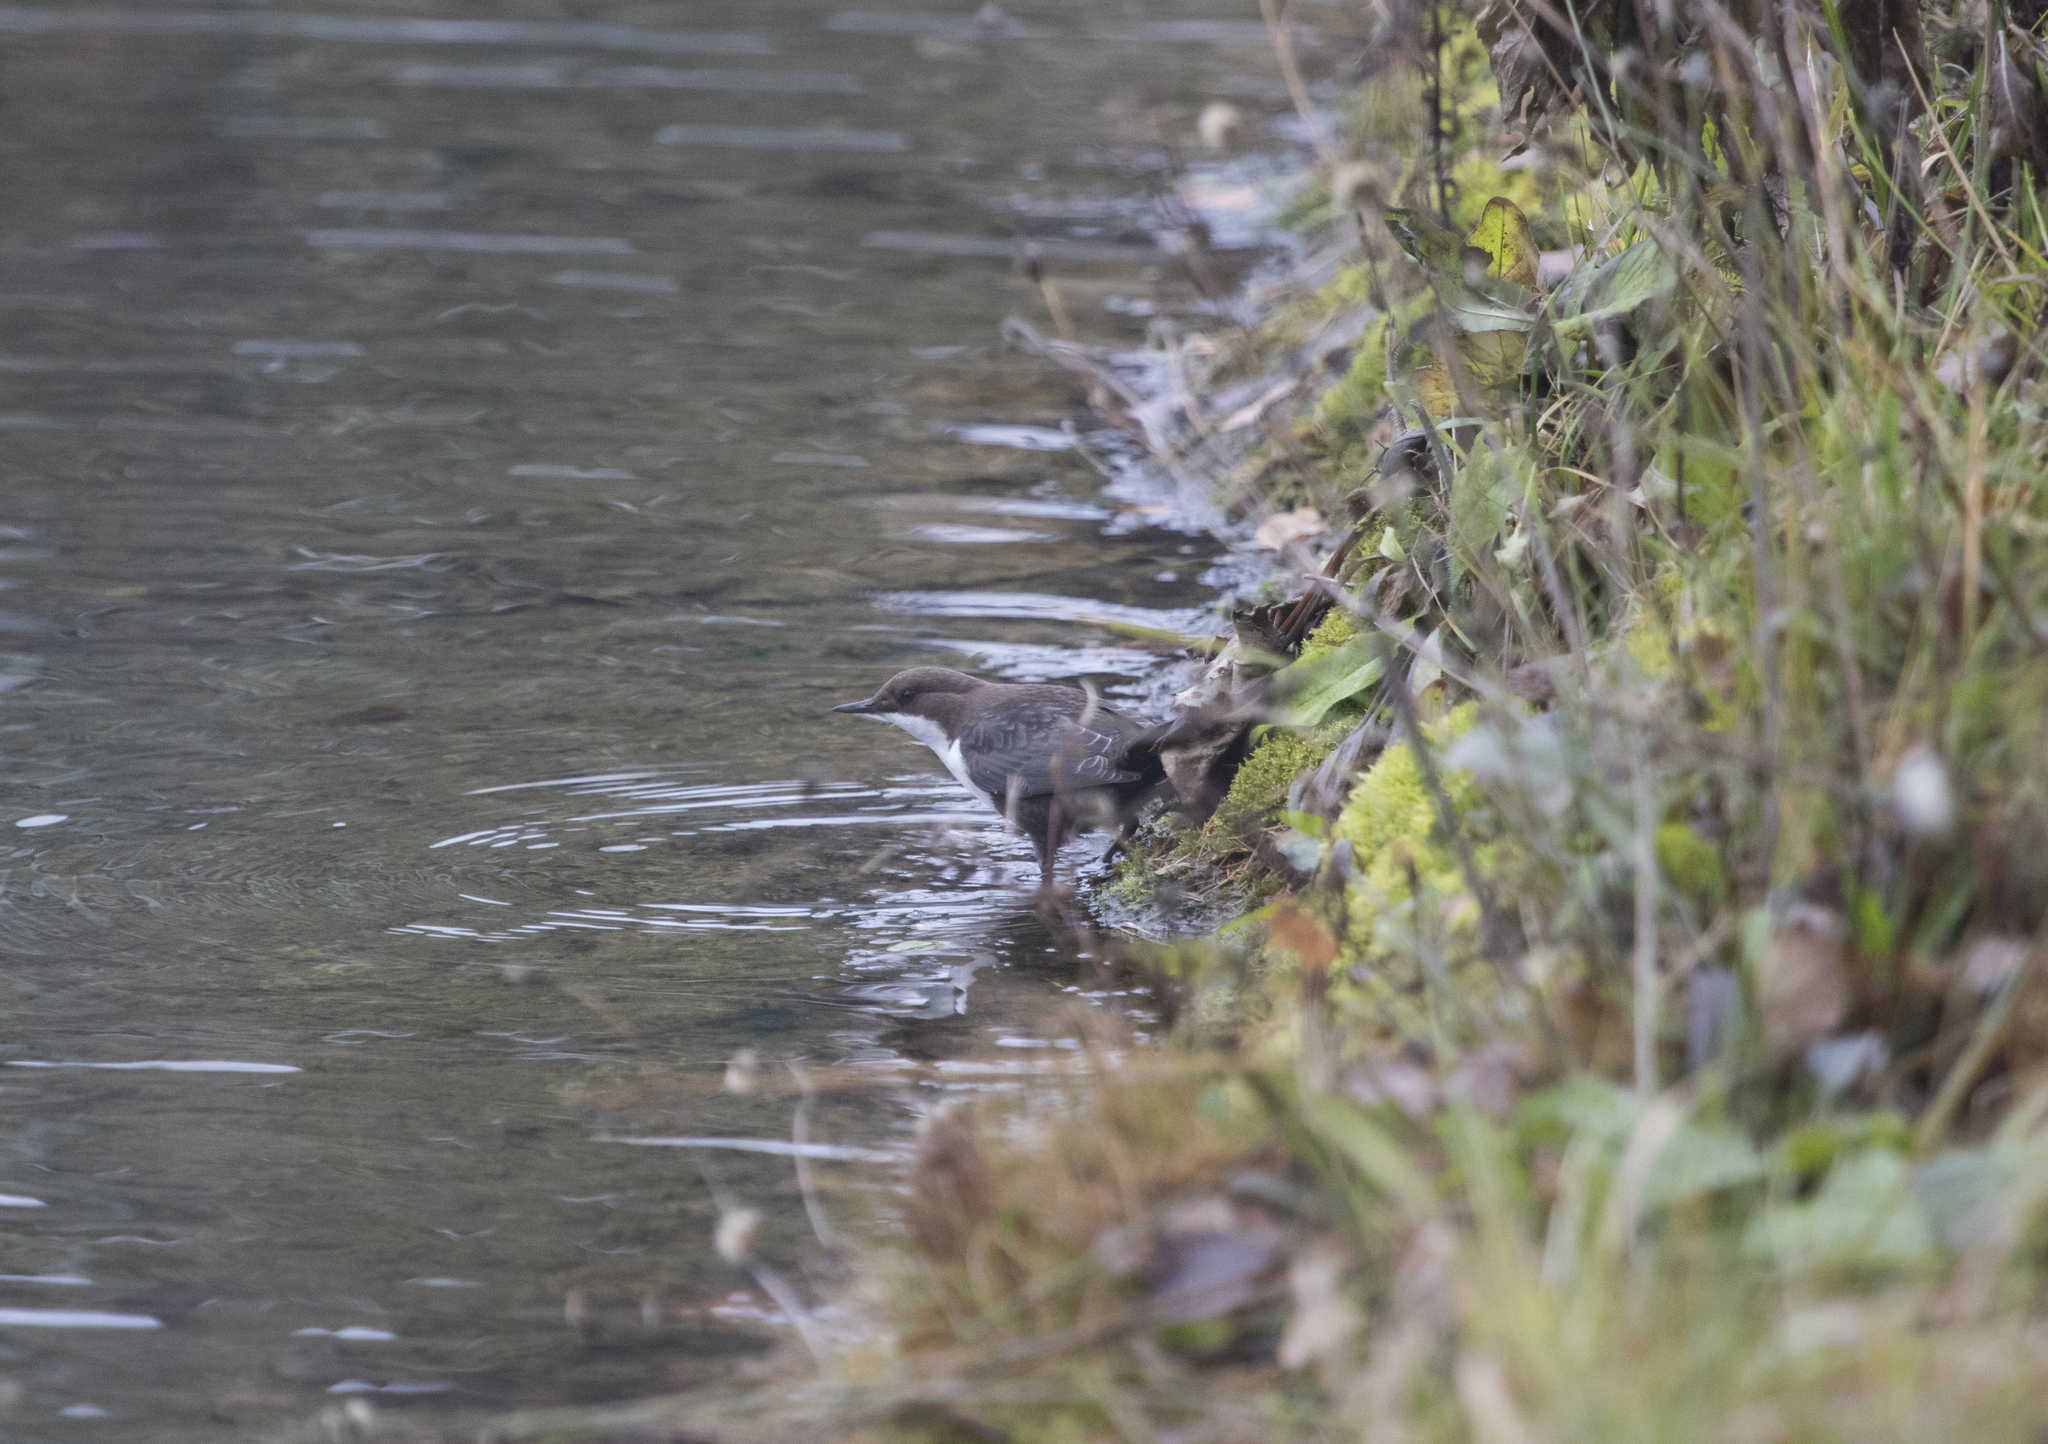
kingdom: Animalia
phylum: Chordata
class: Aves
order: Passeriformes
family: Cinclidae
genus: Cinclus
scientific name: Cinclus cinclus
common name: White-throated dipper
